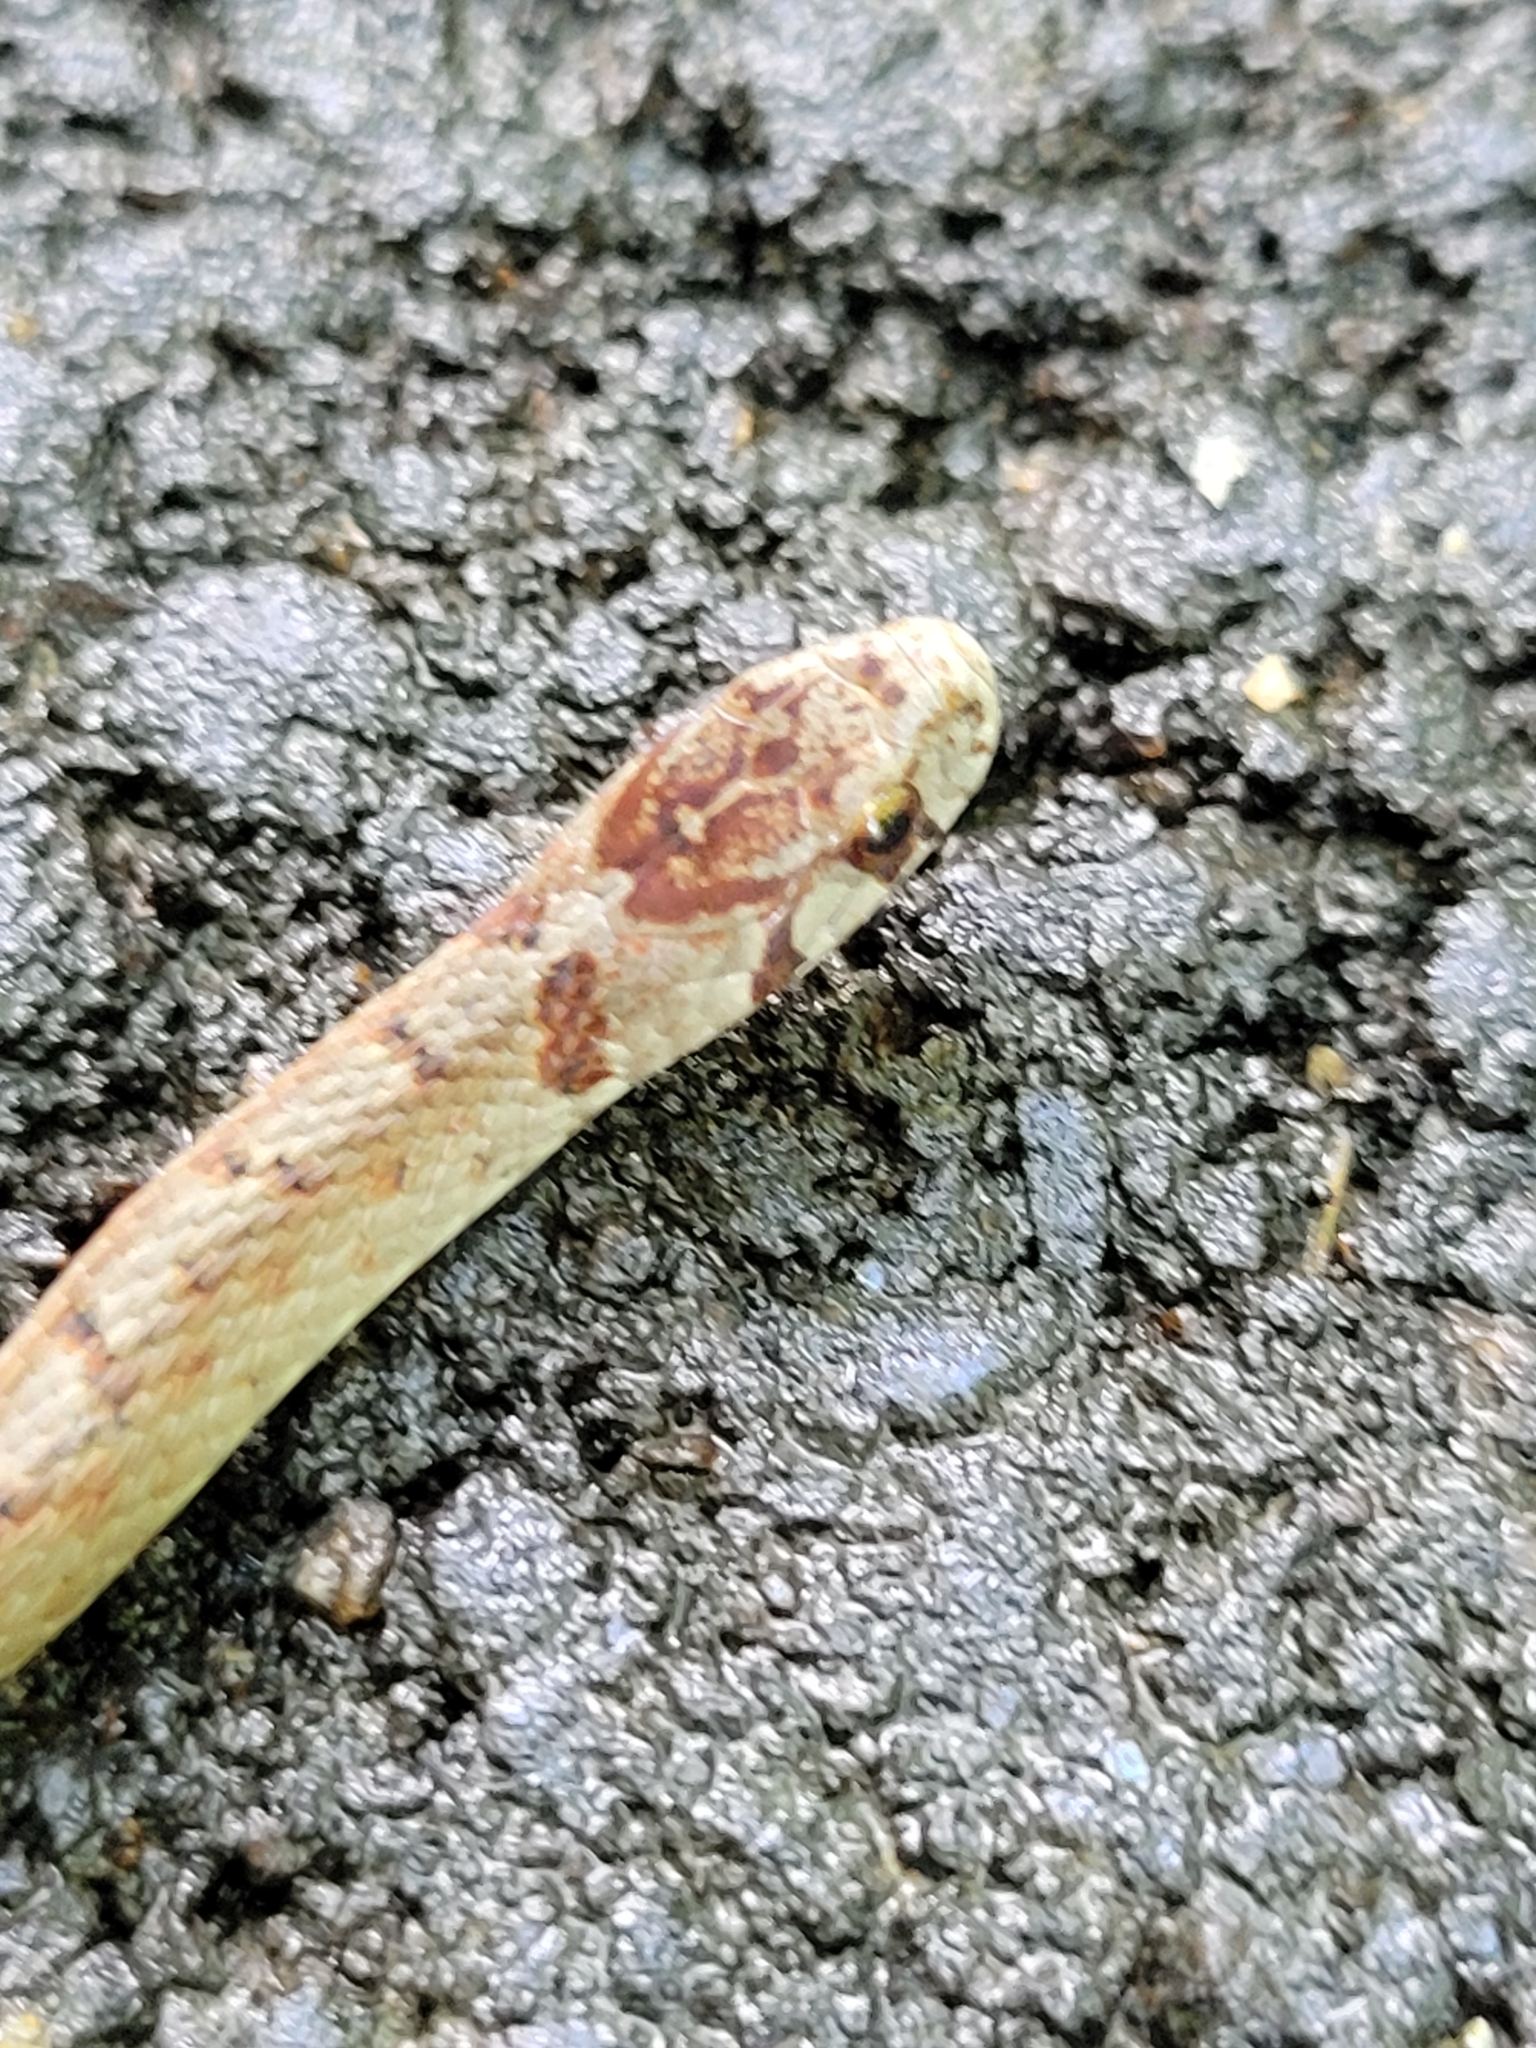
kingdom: Animalia
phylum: Chordata
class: Squamata
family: Colubridae
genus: Storeria
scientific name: Storeria dekayi
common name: (dekay’s) brown snake
